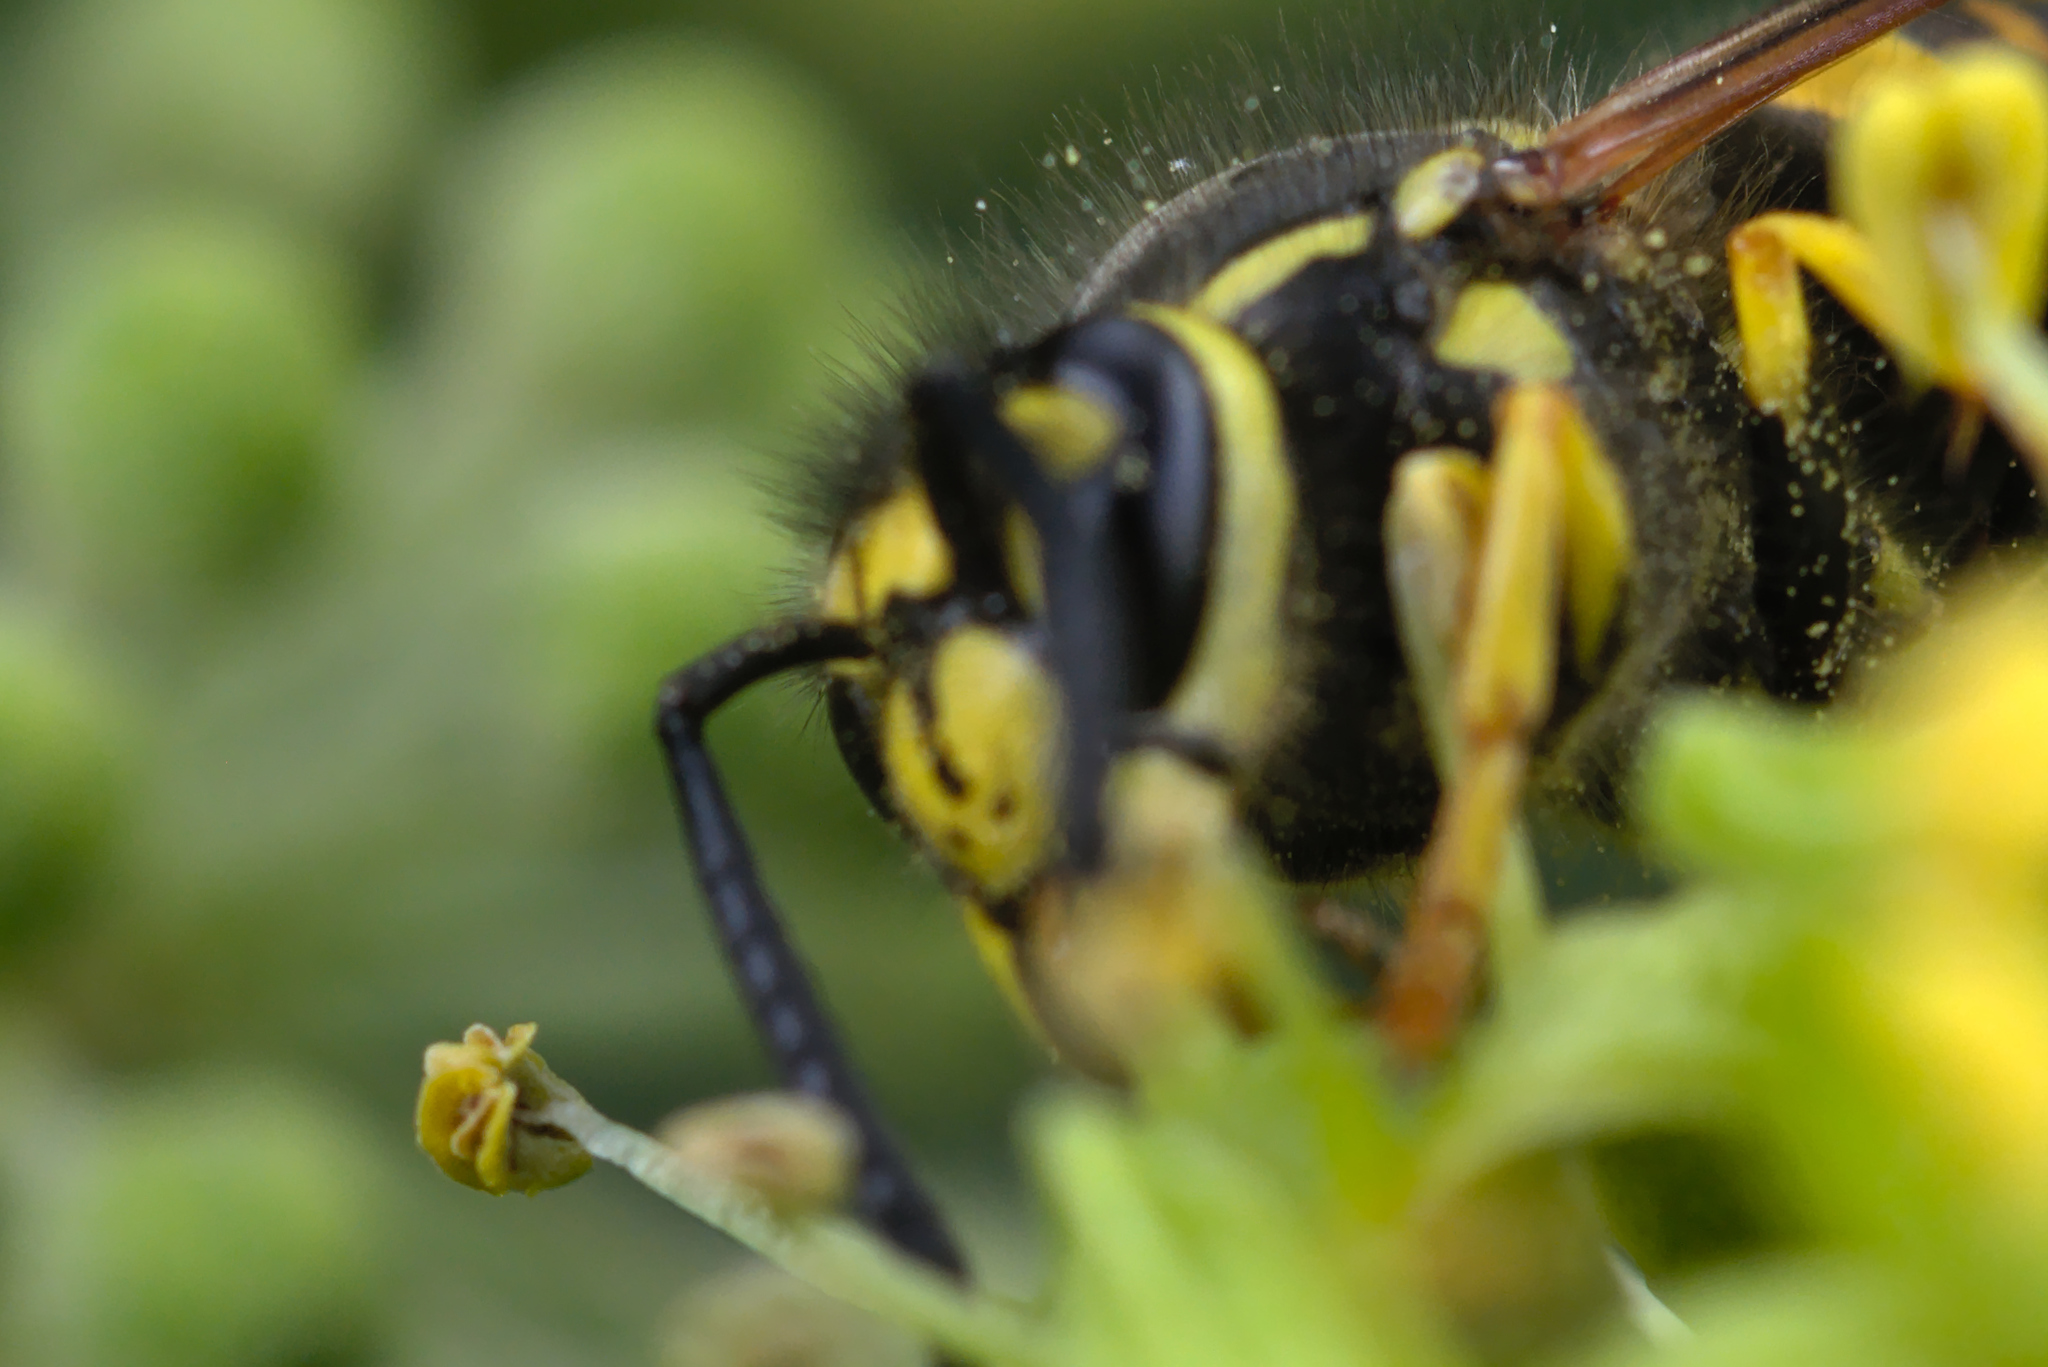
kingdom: Animalia
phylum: Arthropoda
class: Insecta
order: Hymenoptera
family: Vespidae
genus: Vespula
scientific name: Vespula germanica
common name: German wasp
